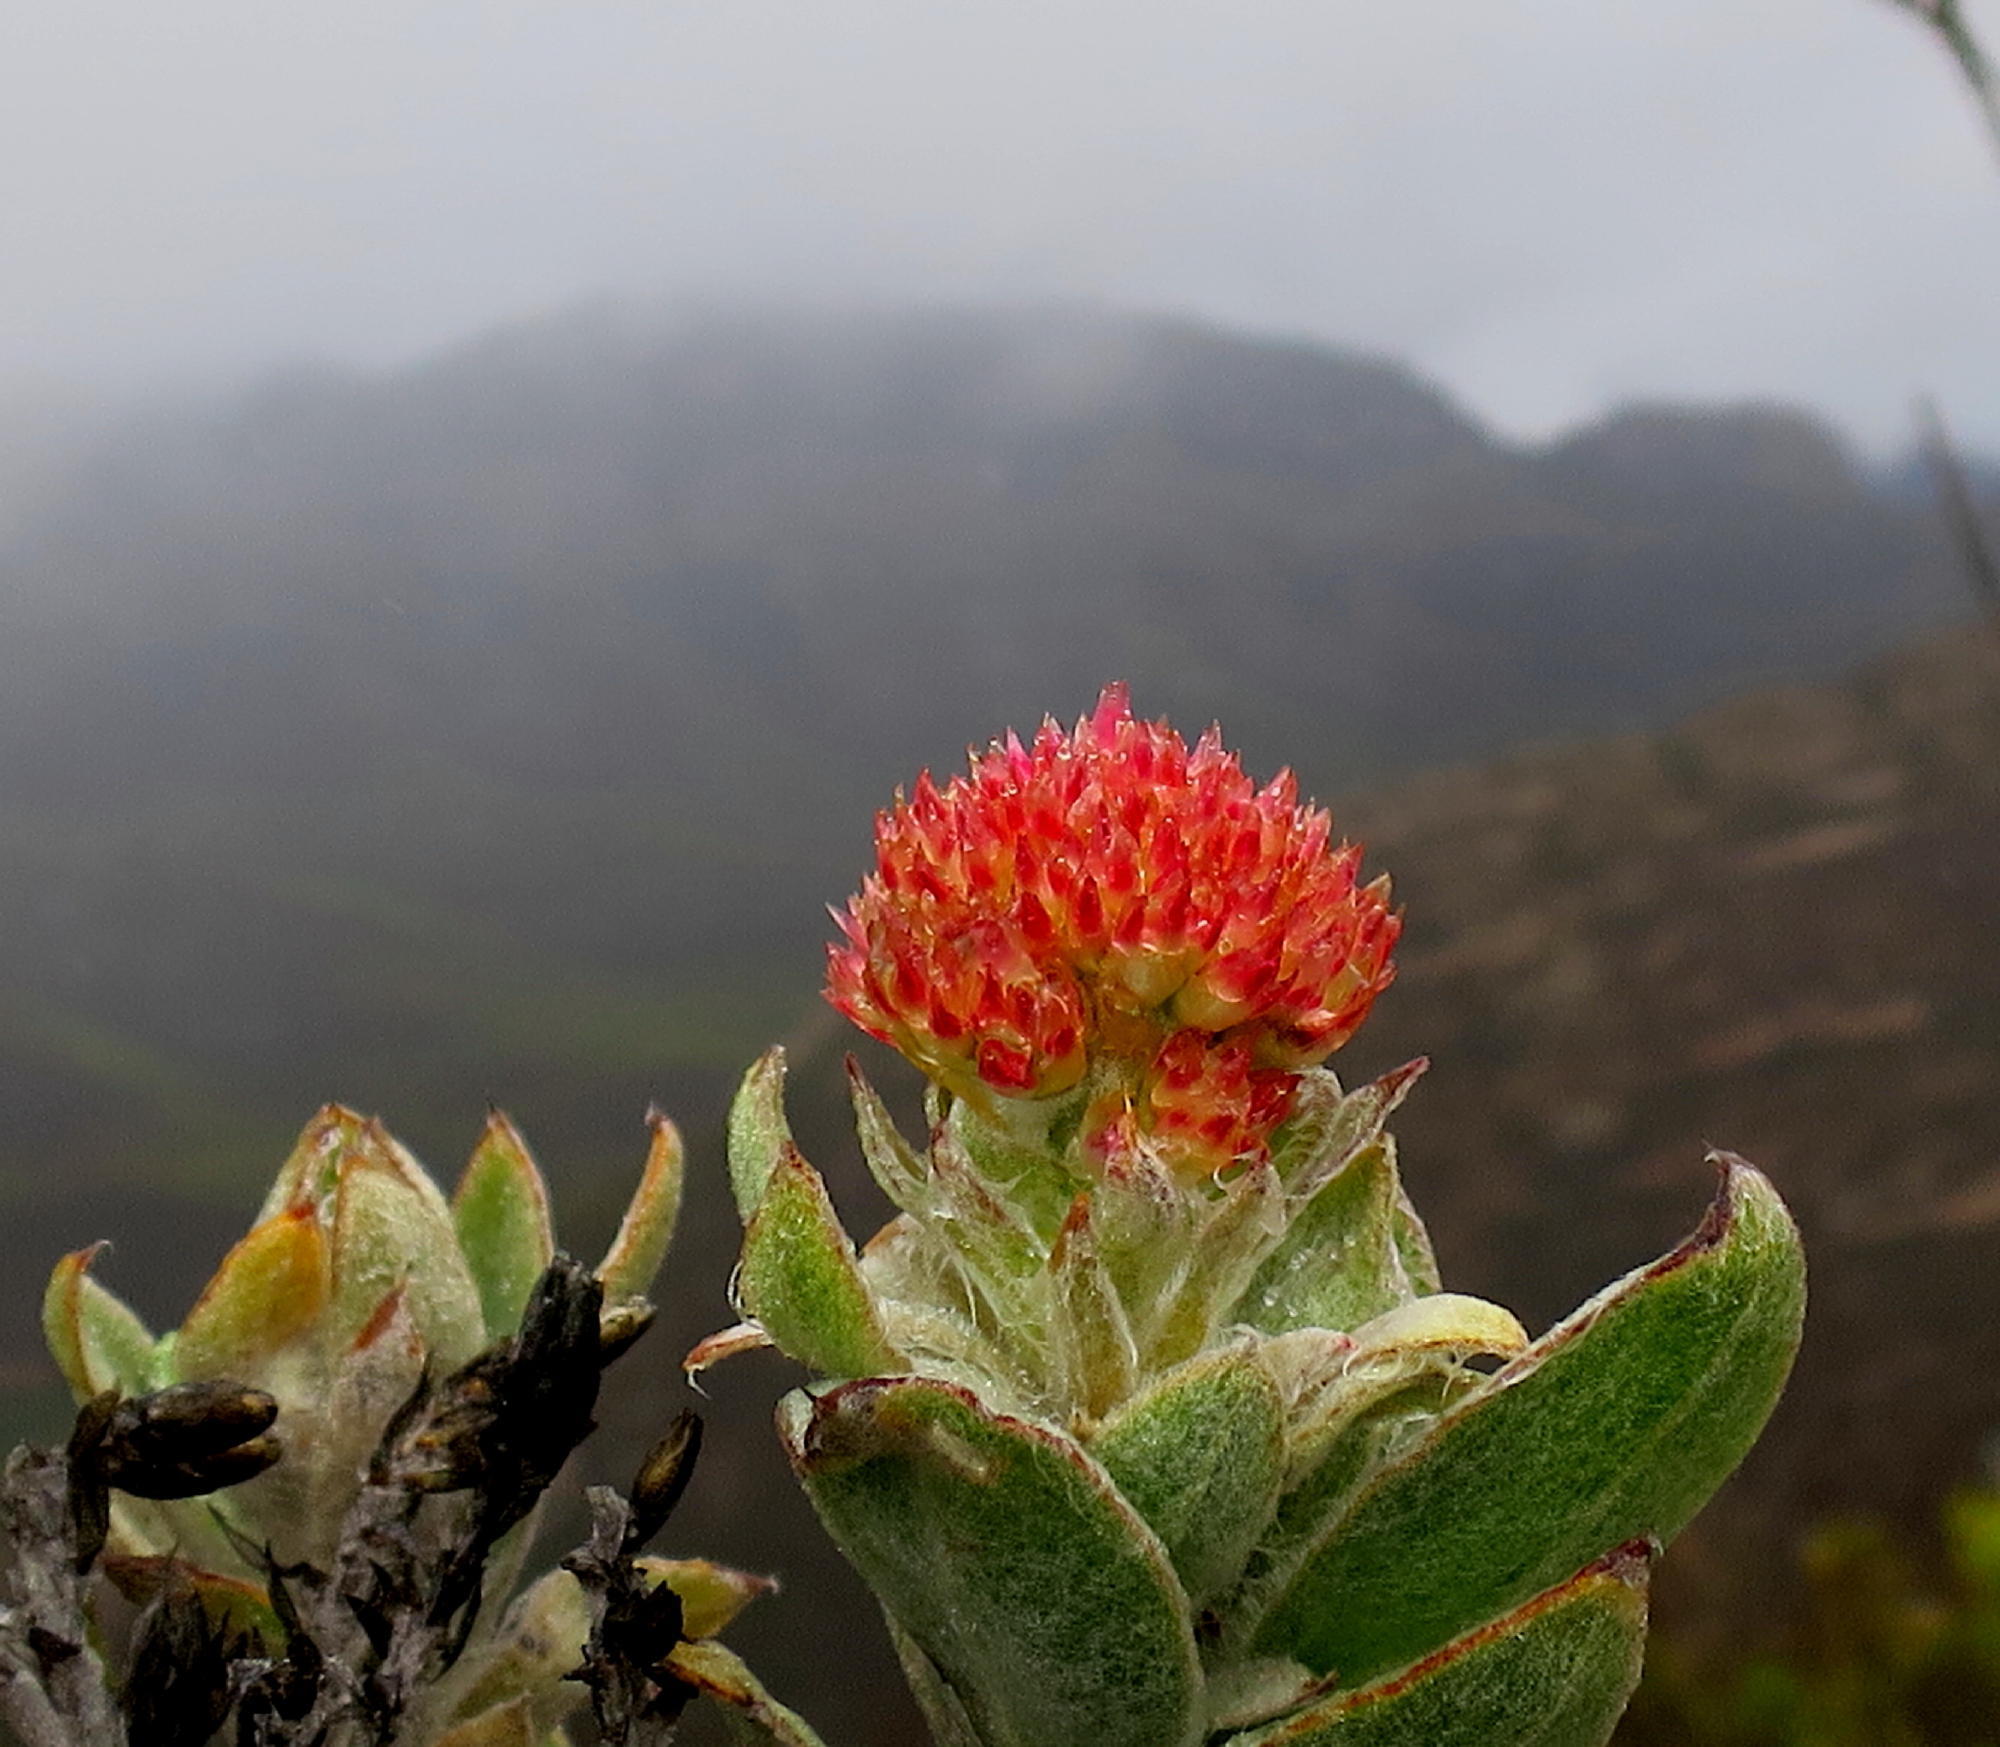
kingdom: Plantae
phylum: Tracheophyta
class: Magnoliopsida
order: Asterales
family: Asteraceae
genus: Syncarpha
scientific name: Syncarpha milleflora
